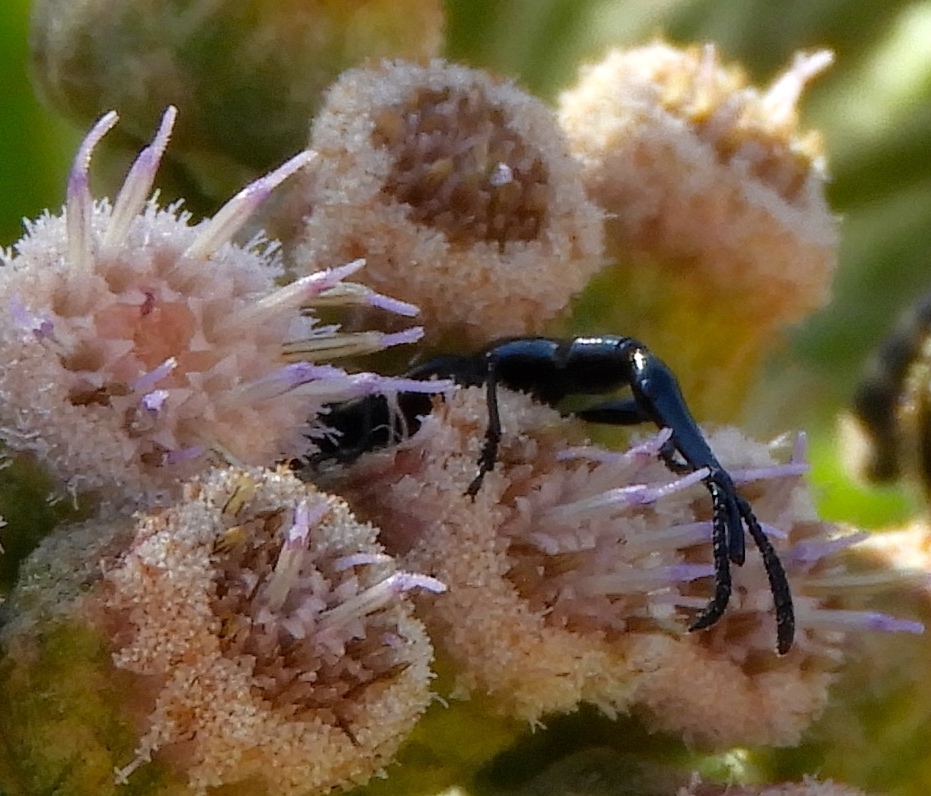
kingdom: Animalia
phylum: Arthropoda
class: Insecta
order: Coleoptera
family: Brentidae
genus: Brentus
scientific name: Brentus
